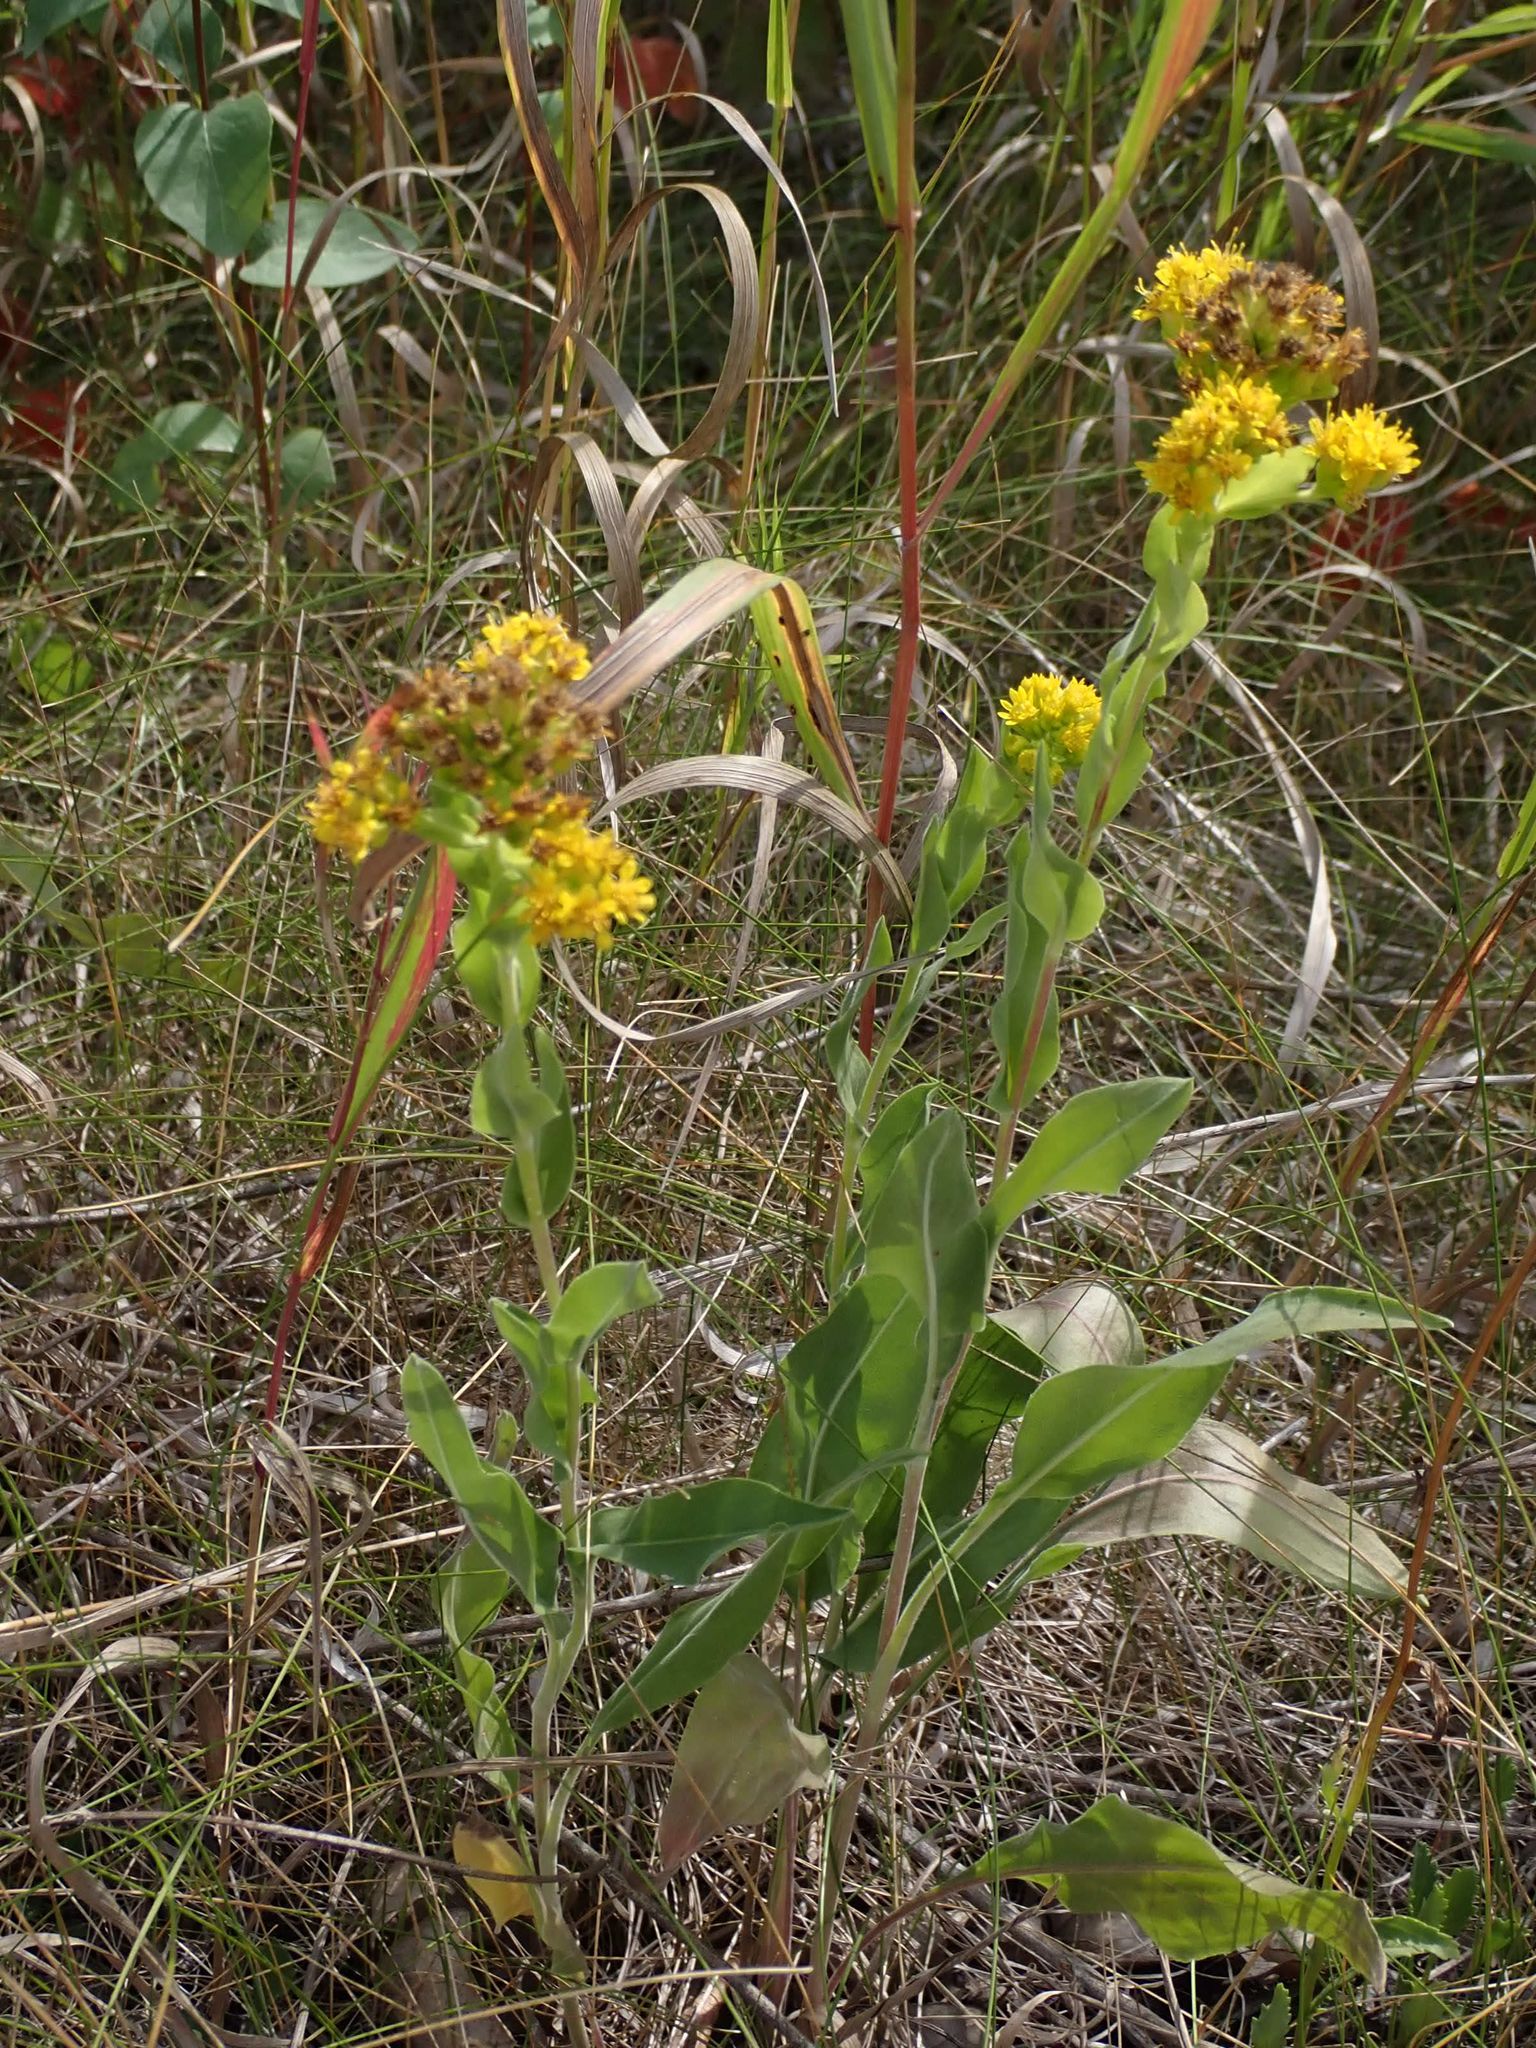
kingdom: Plantae
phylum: Tracheophyta
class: Magnoliopsida
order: Asterales
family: Asteraceae
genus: Solidago
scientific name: Solidago rigida
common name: Rigid goldenrod
